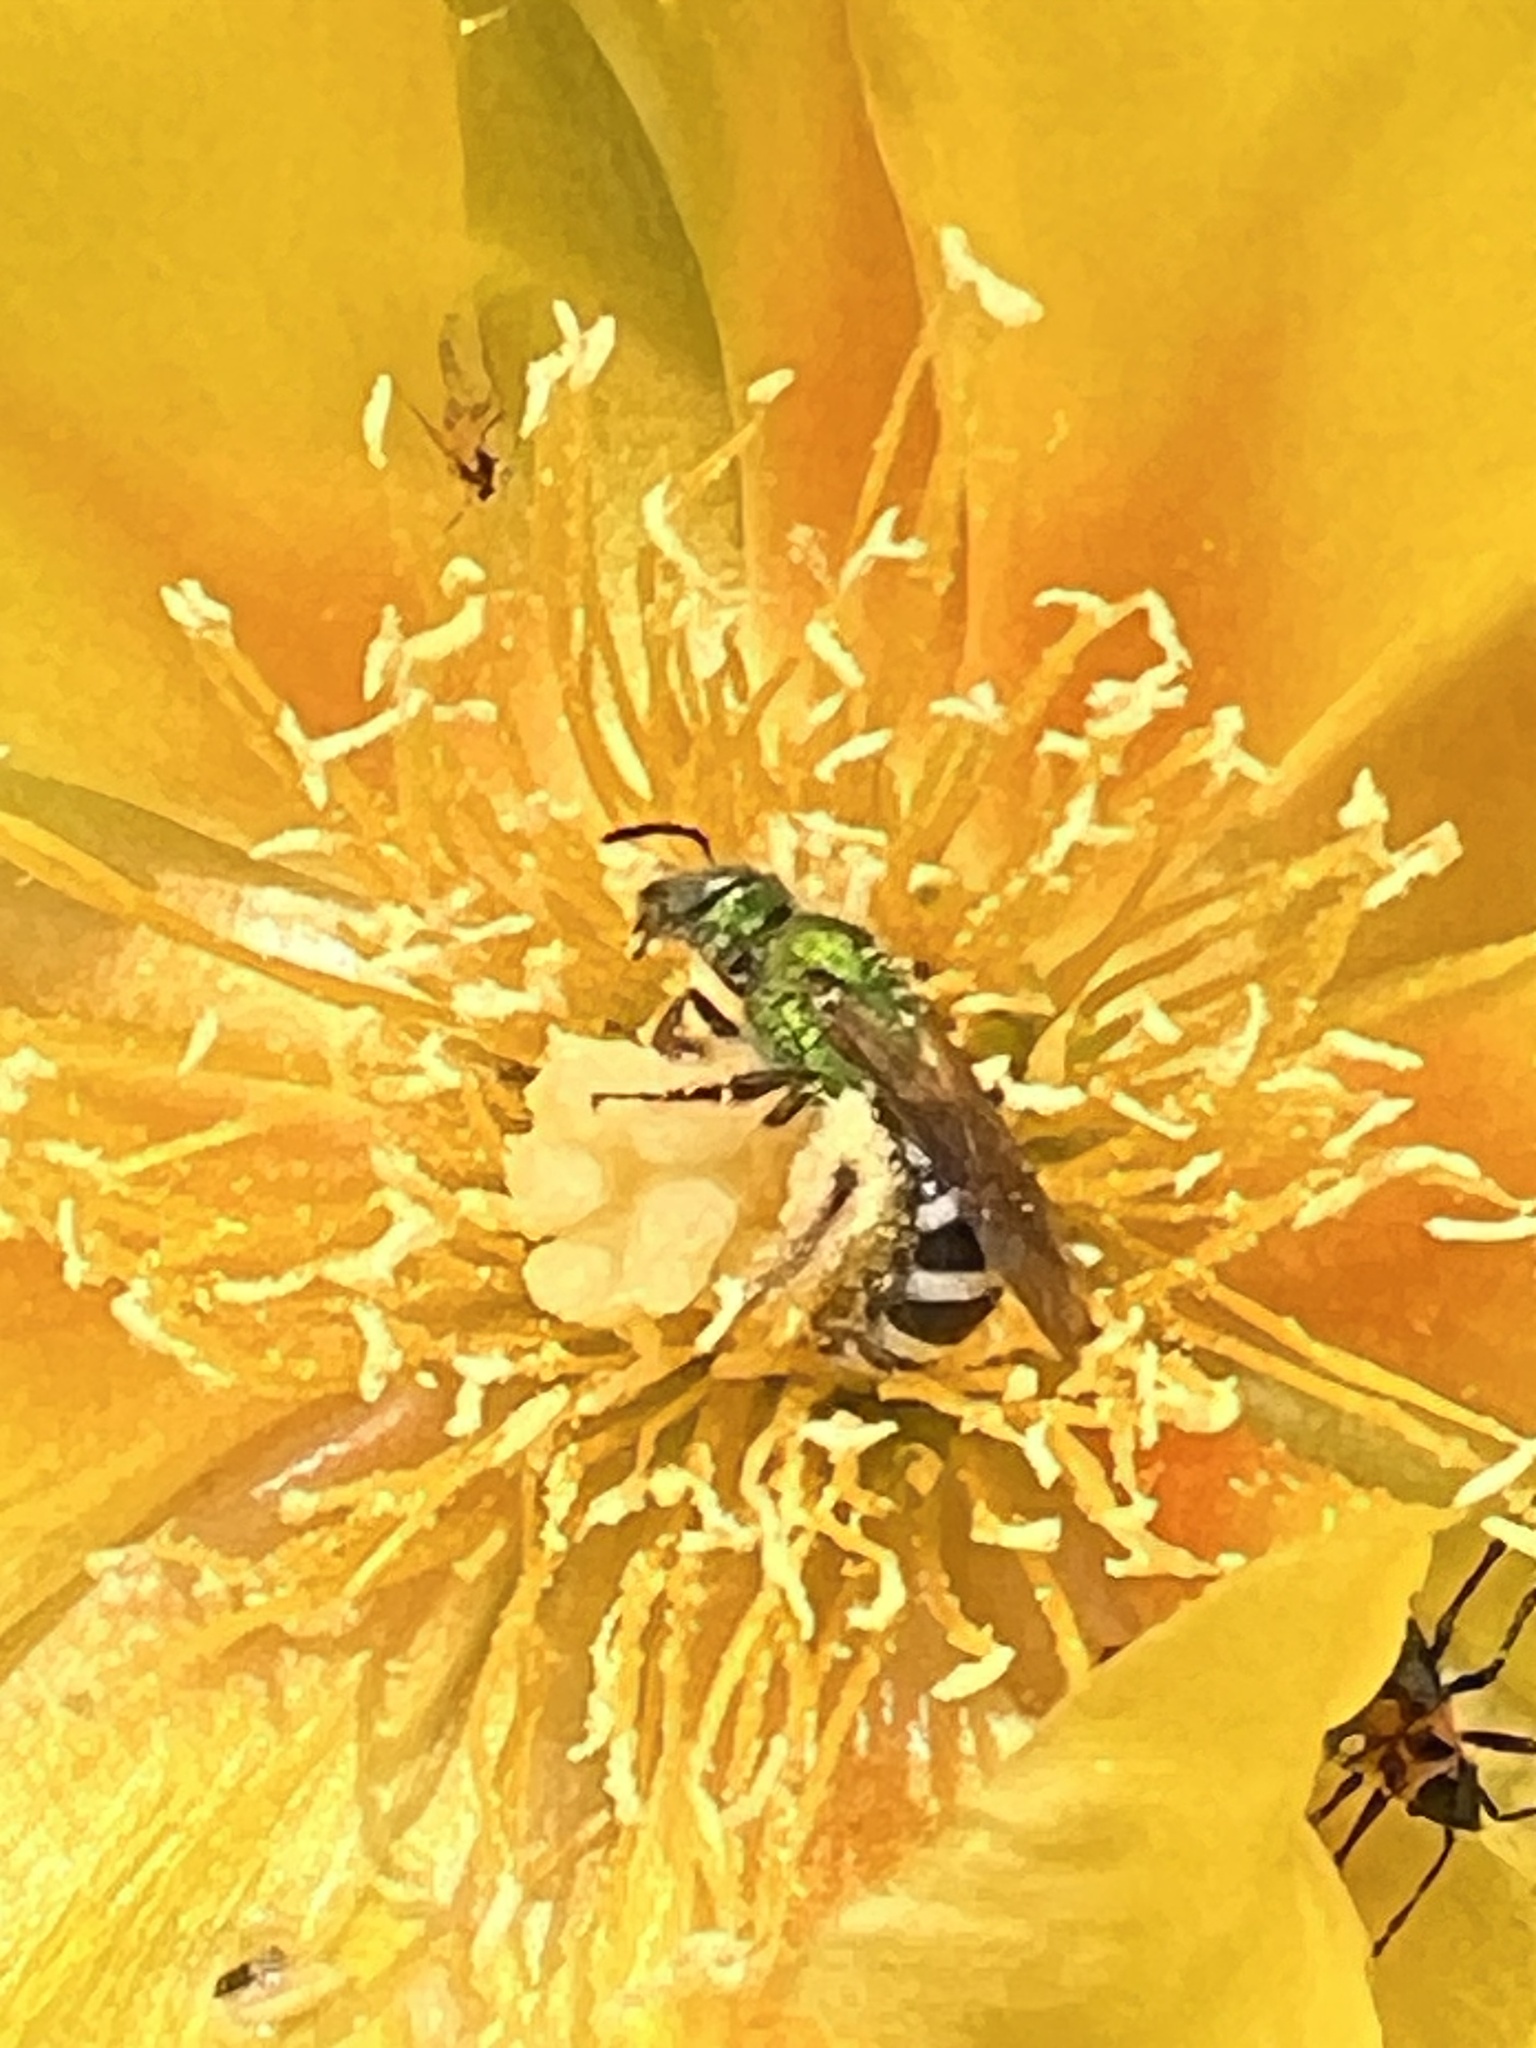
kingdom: Animalia
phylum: Arthropoda
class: Insecta
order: Hymenoptera
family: Halictidae
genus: Agapostemon
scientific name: Agapostemon virescens
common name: Bicolored striped sweat bee
